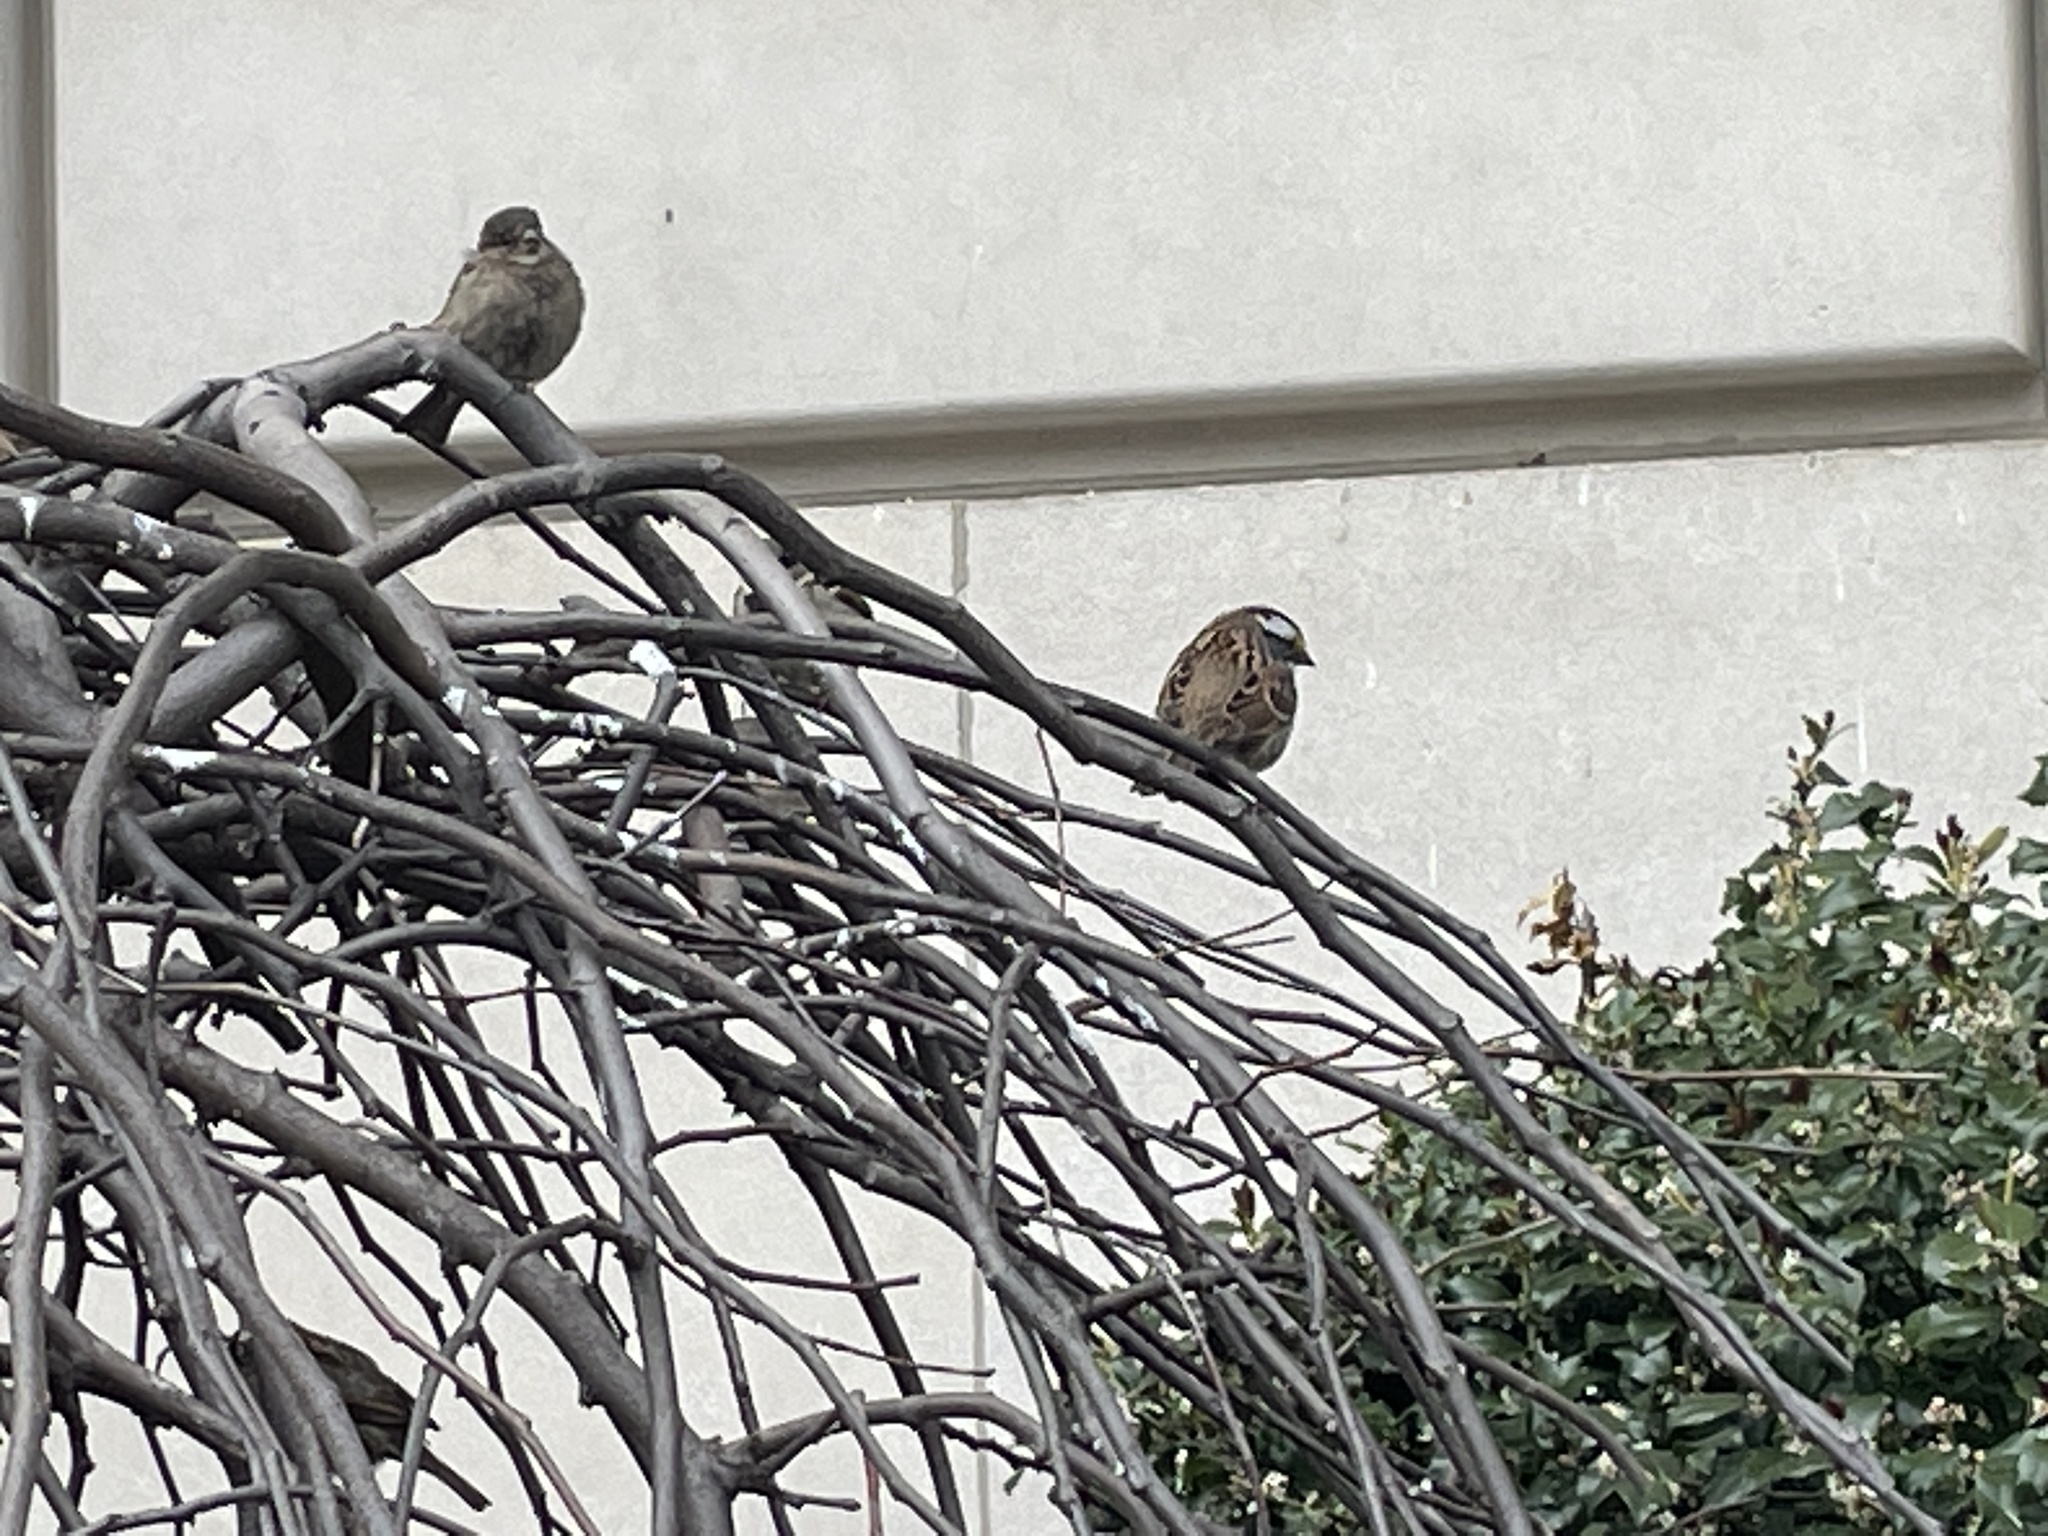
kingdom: Animalia
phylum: Chordata
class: Aves
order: Passeriformes
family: Passerellidae
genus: Zonotrichia
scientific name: Zonotrichia albicollis
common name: White-throated sparrow
